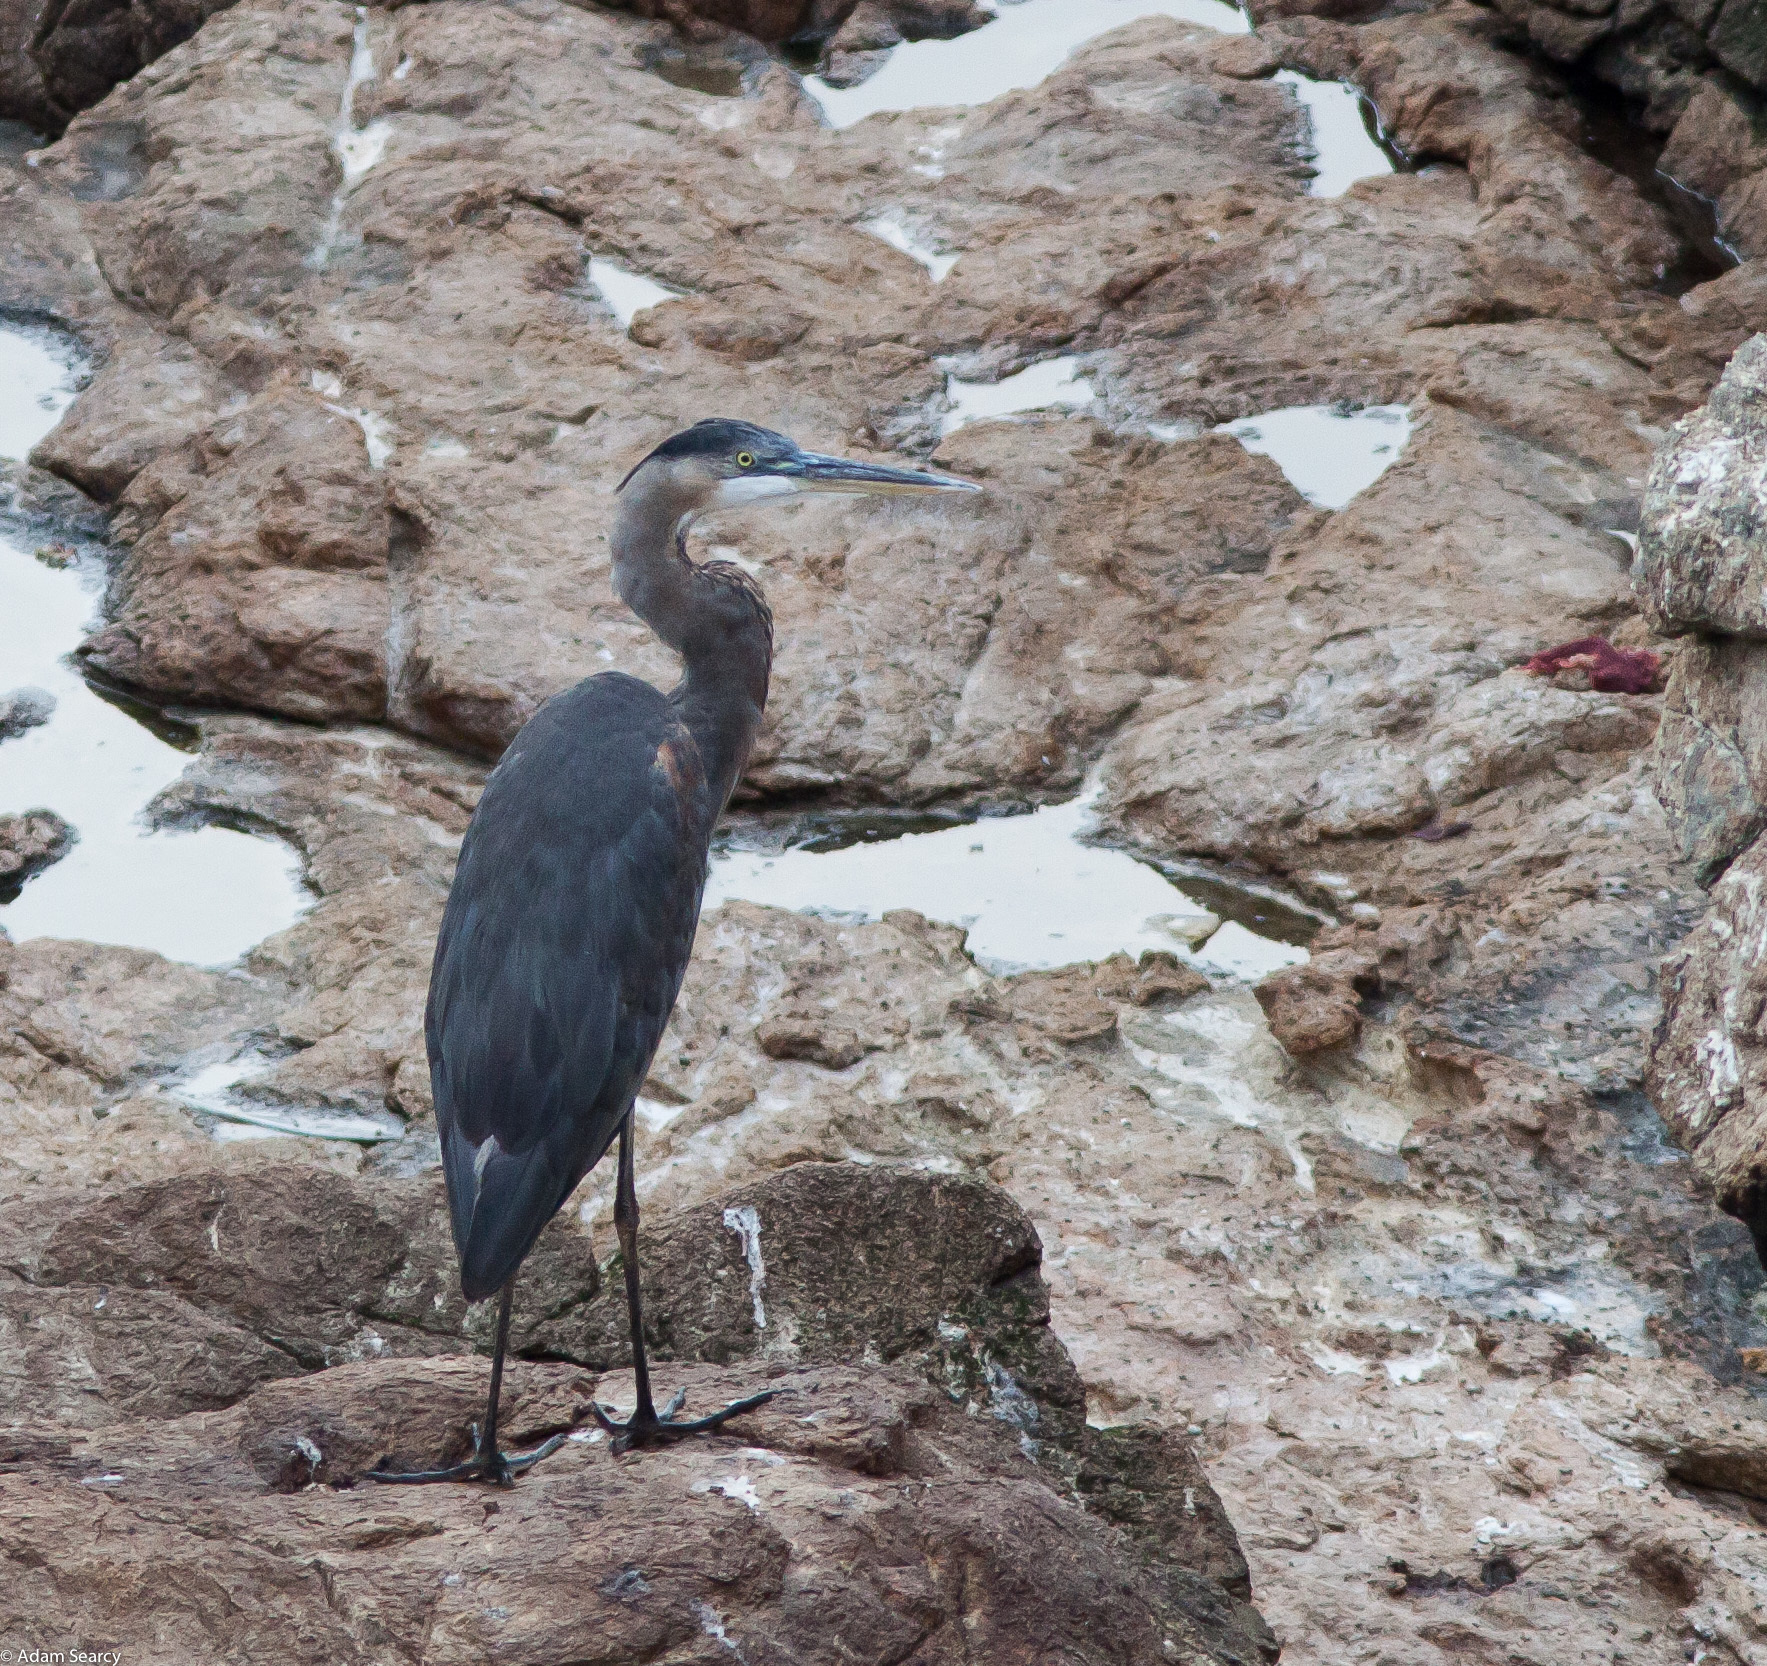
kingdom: Animalia
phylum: Chordata
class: Aves
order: Pelecaniformes
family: Ardeidae
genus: Ardea
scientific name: Ardea herodias
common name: Great blue heron
